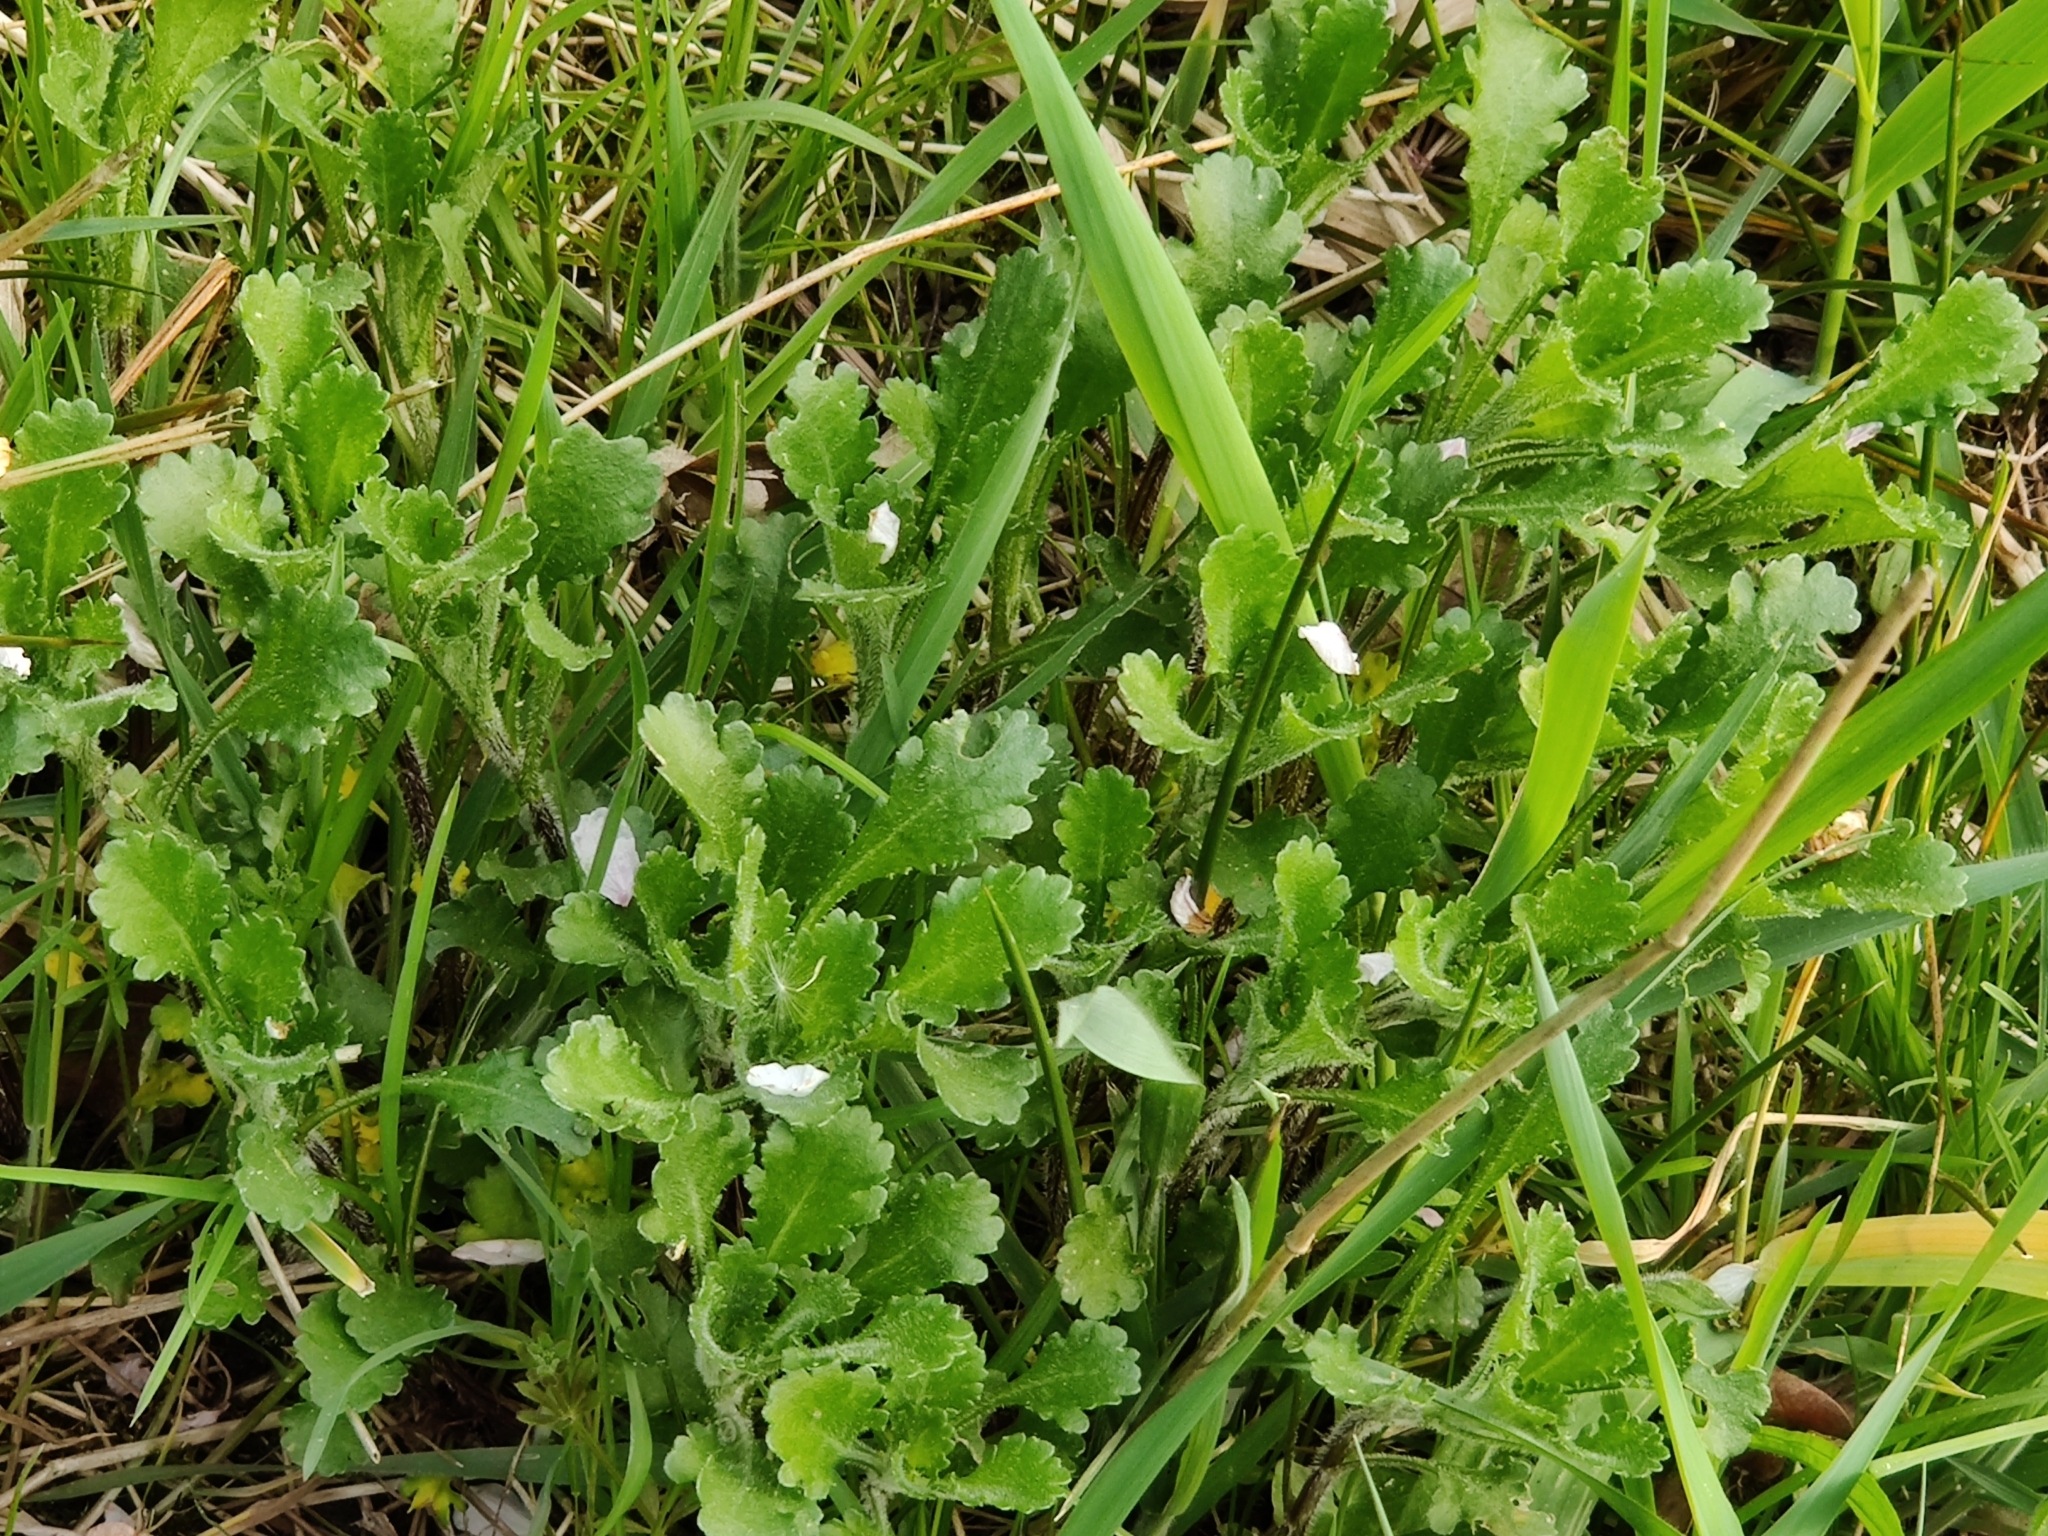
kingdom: Plantae
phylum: Tracheophyta
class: Magnoliopsida
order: Asterales
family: Asteraceae
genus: Leucanthemum
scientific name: Leucanthemum vulgare
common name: Oxeye daisy
